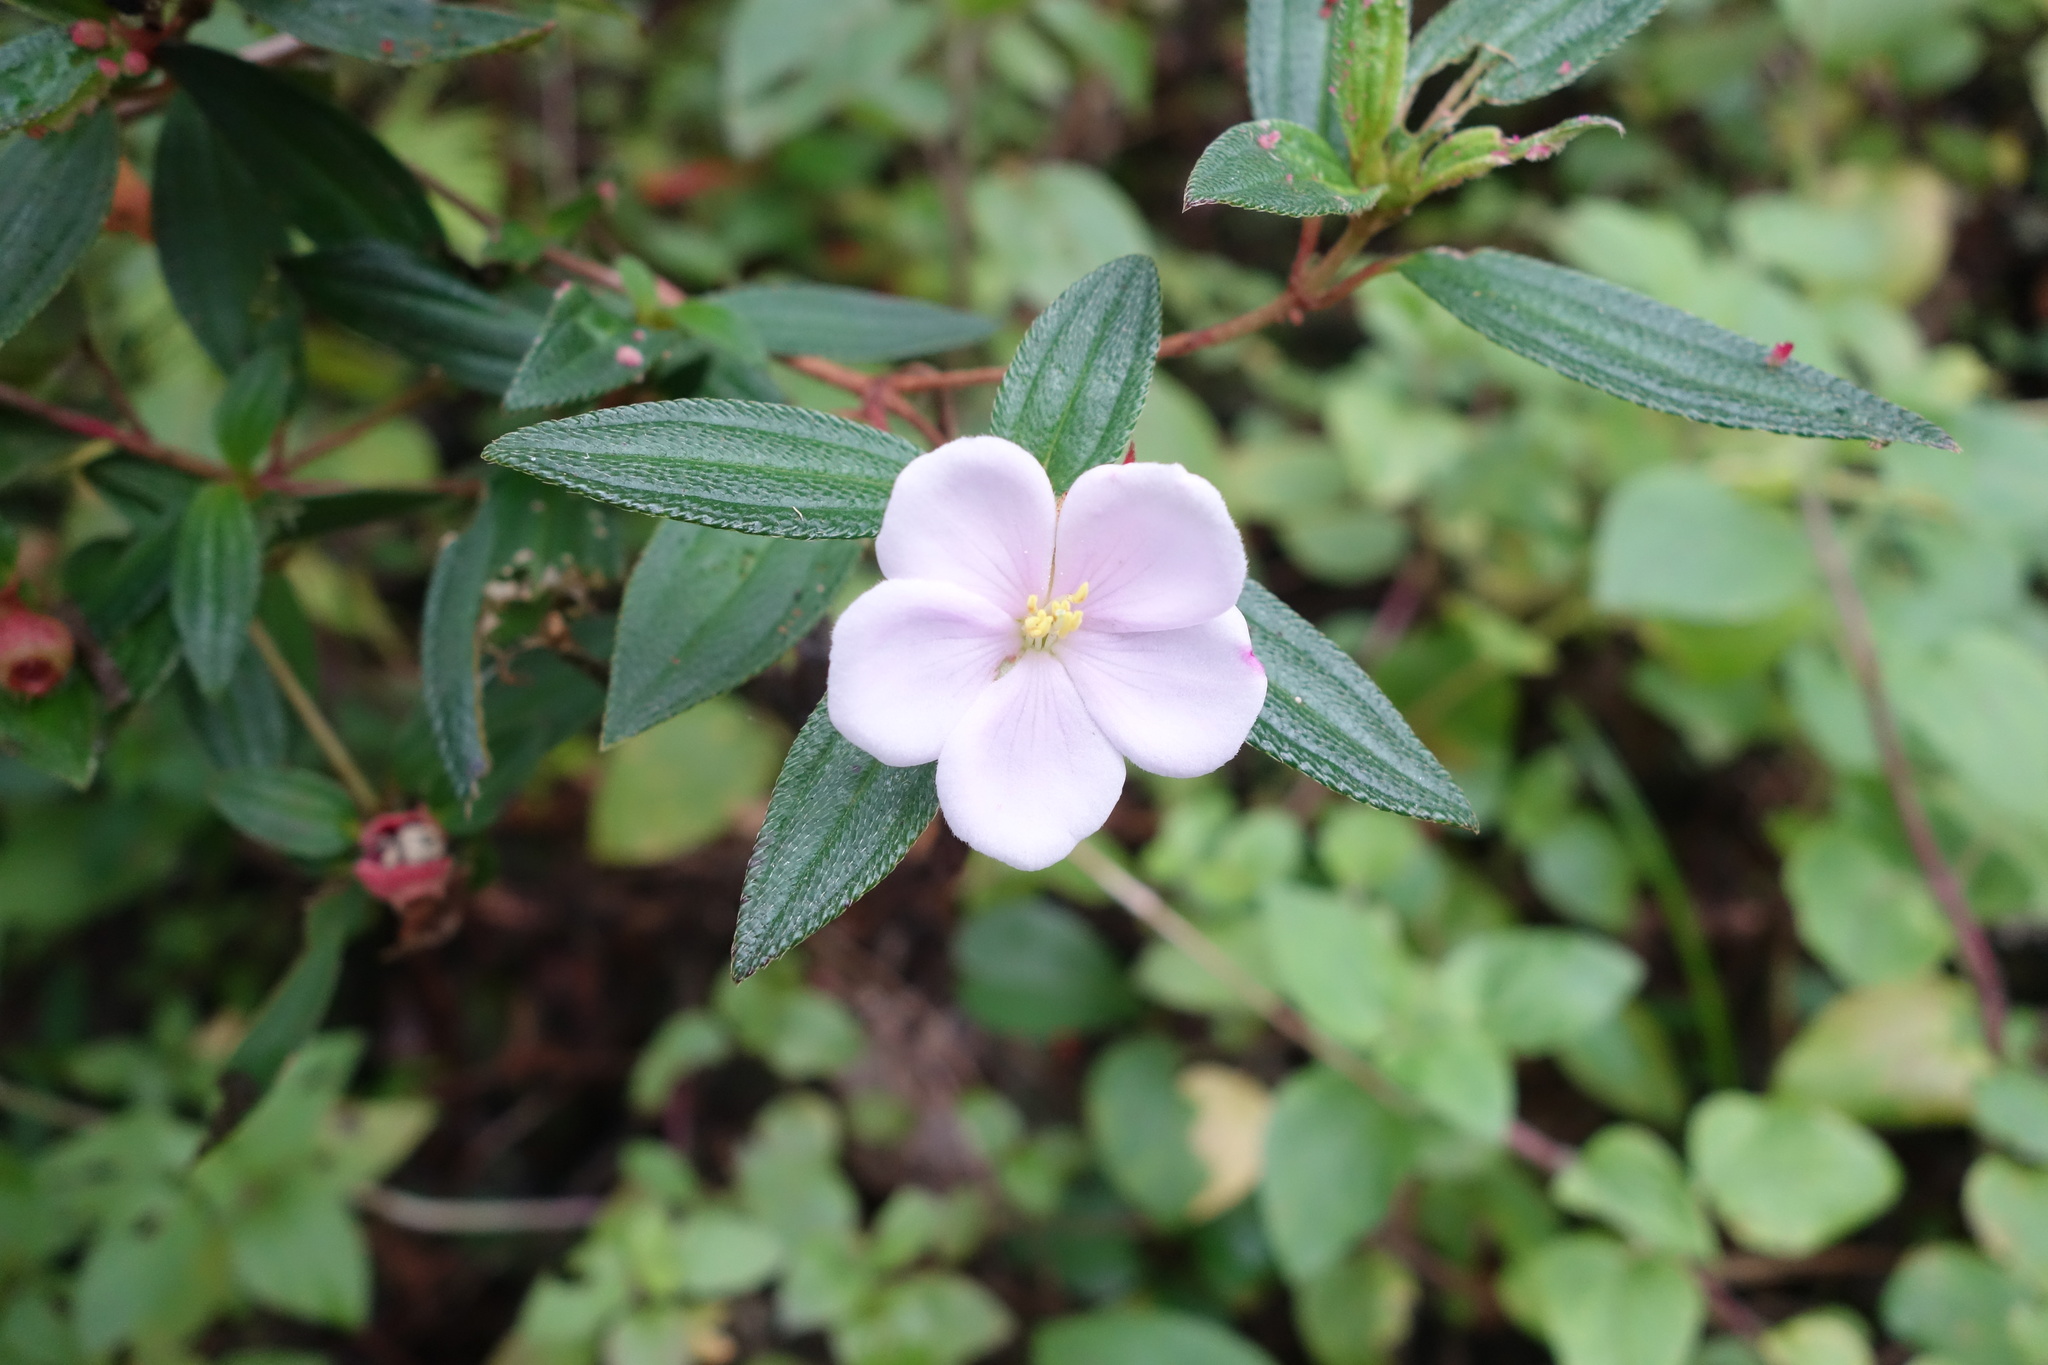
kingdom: Plantae
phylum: Tracheophyta
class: Magnoliopsida
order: Myrtales
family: Melastomataceae
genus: Melastoma
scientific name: Melastoma scaberrima
